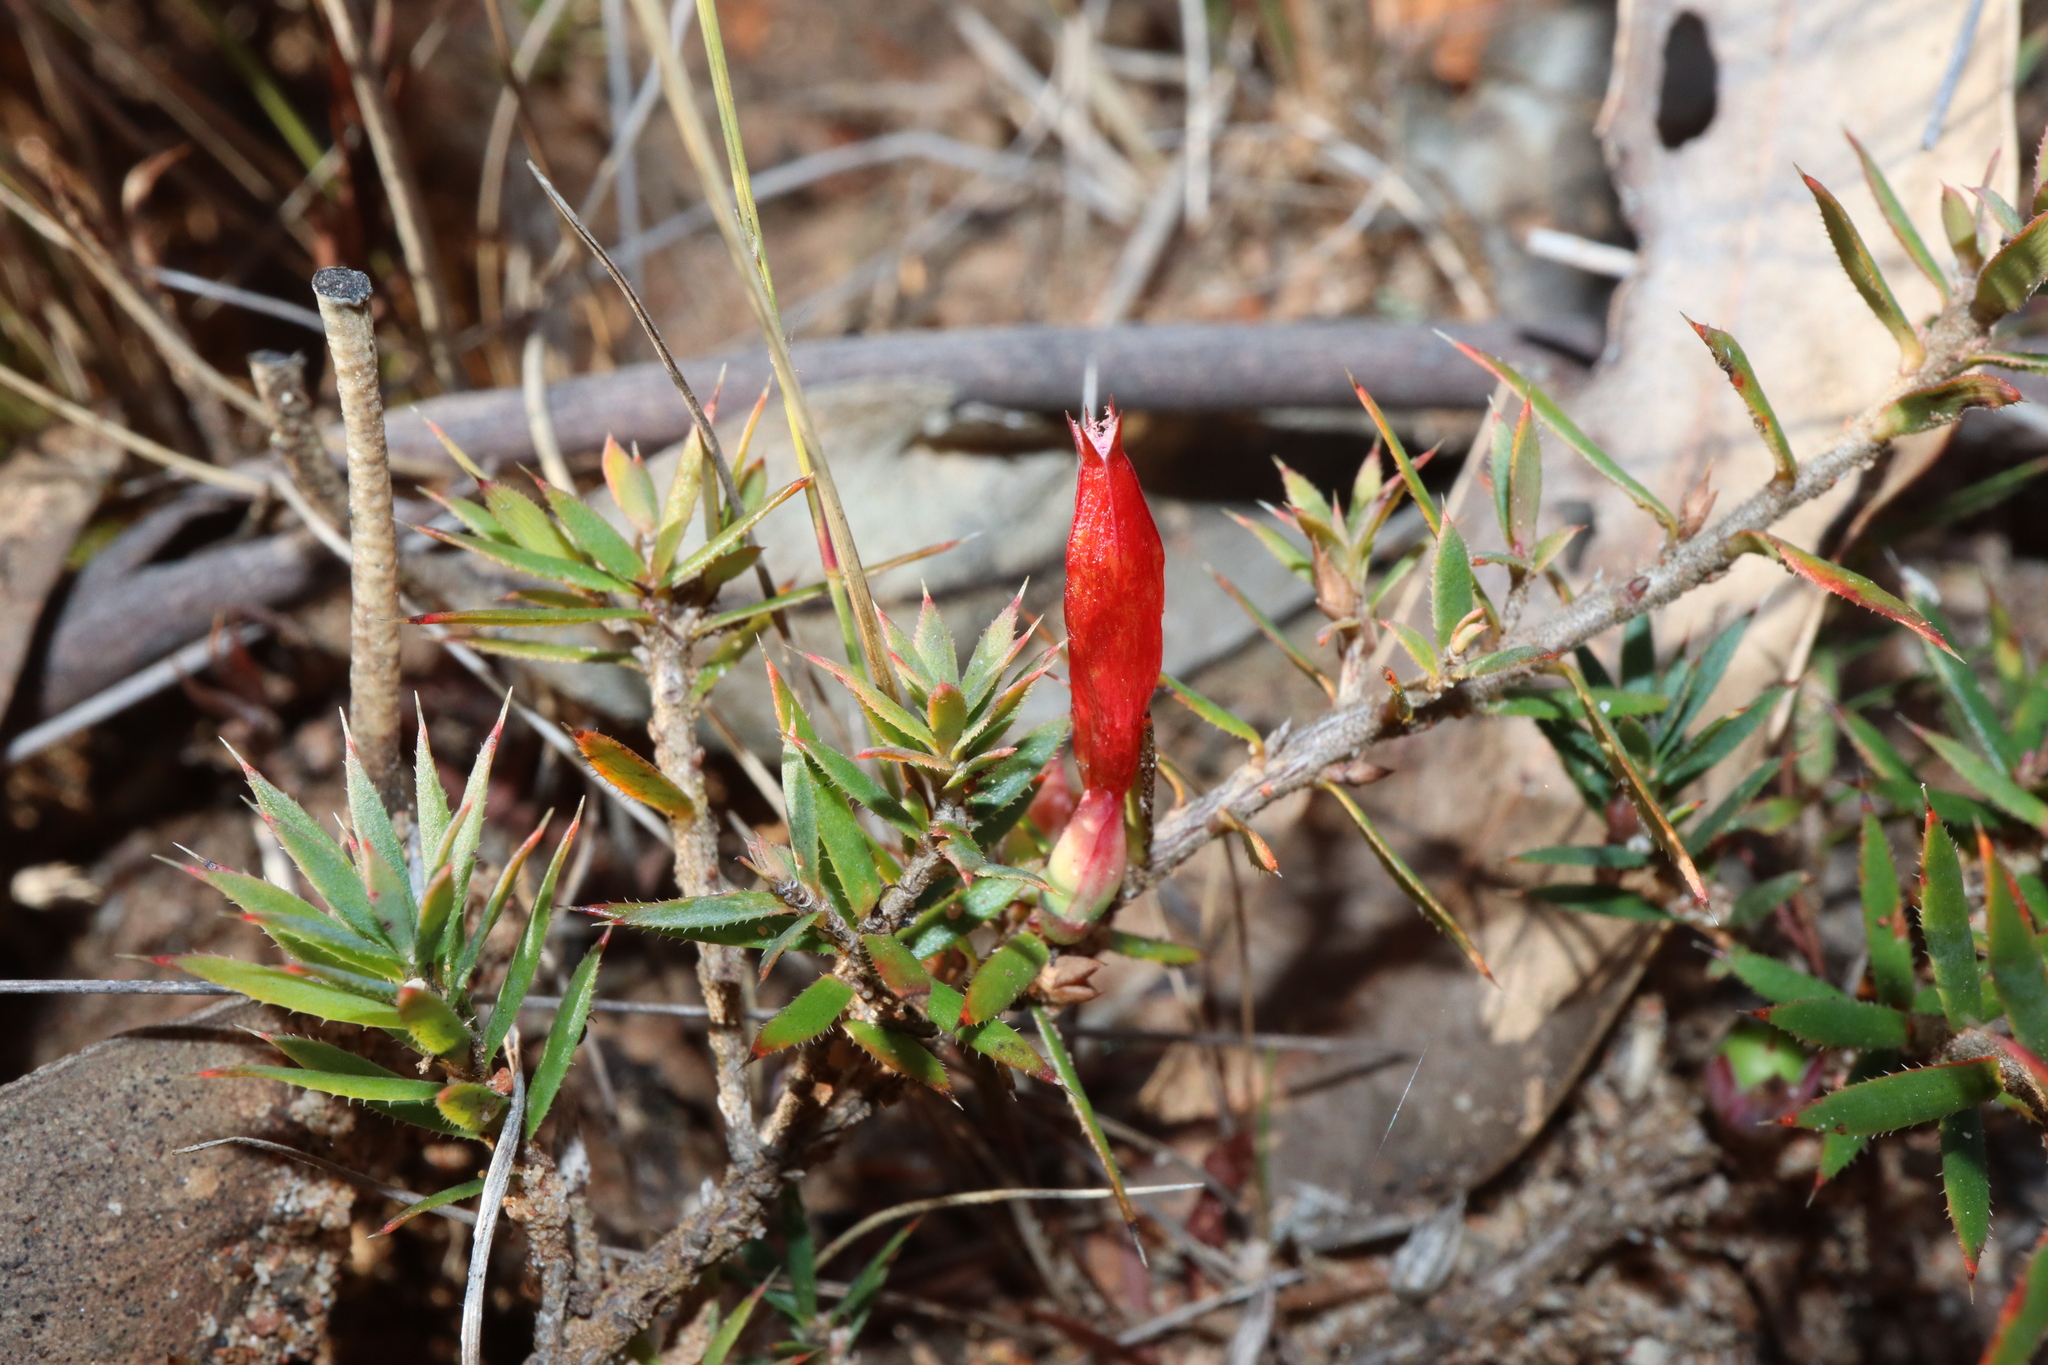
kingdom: Plantae
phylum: Tracheophyta
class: Magnoliopsida
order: Ericales
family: Ericaceae
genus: Styphelia
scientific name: Styphelia humifusa
